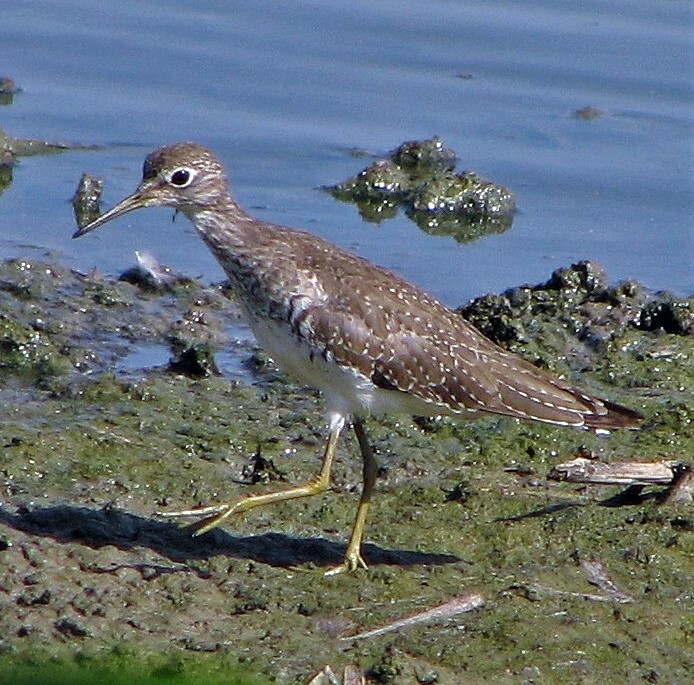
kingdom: Animalia
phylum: Chordata
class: Aves
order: Charadriiformes
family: Scolopacidae
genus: Tringa
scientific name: Tringa solitaria
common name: Solitary sandpiper
